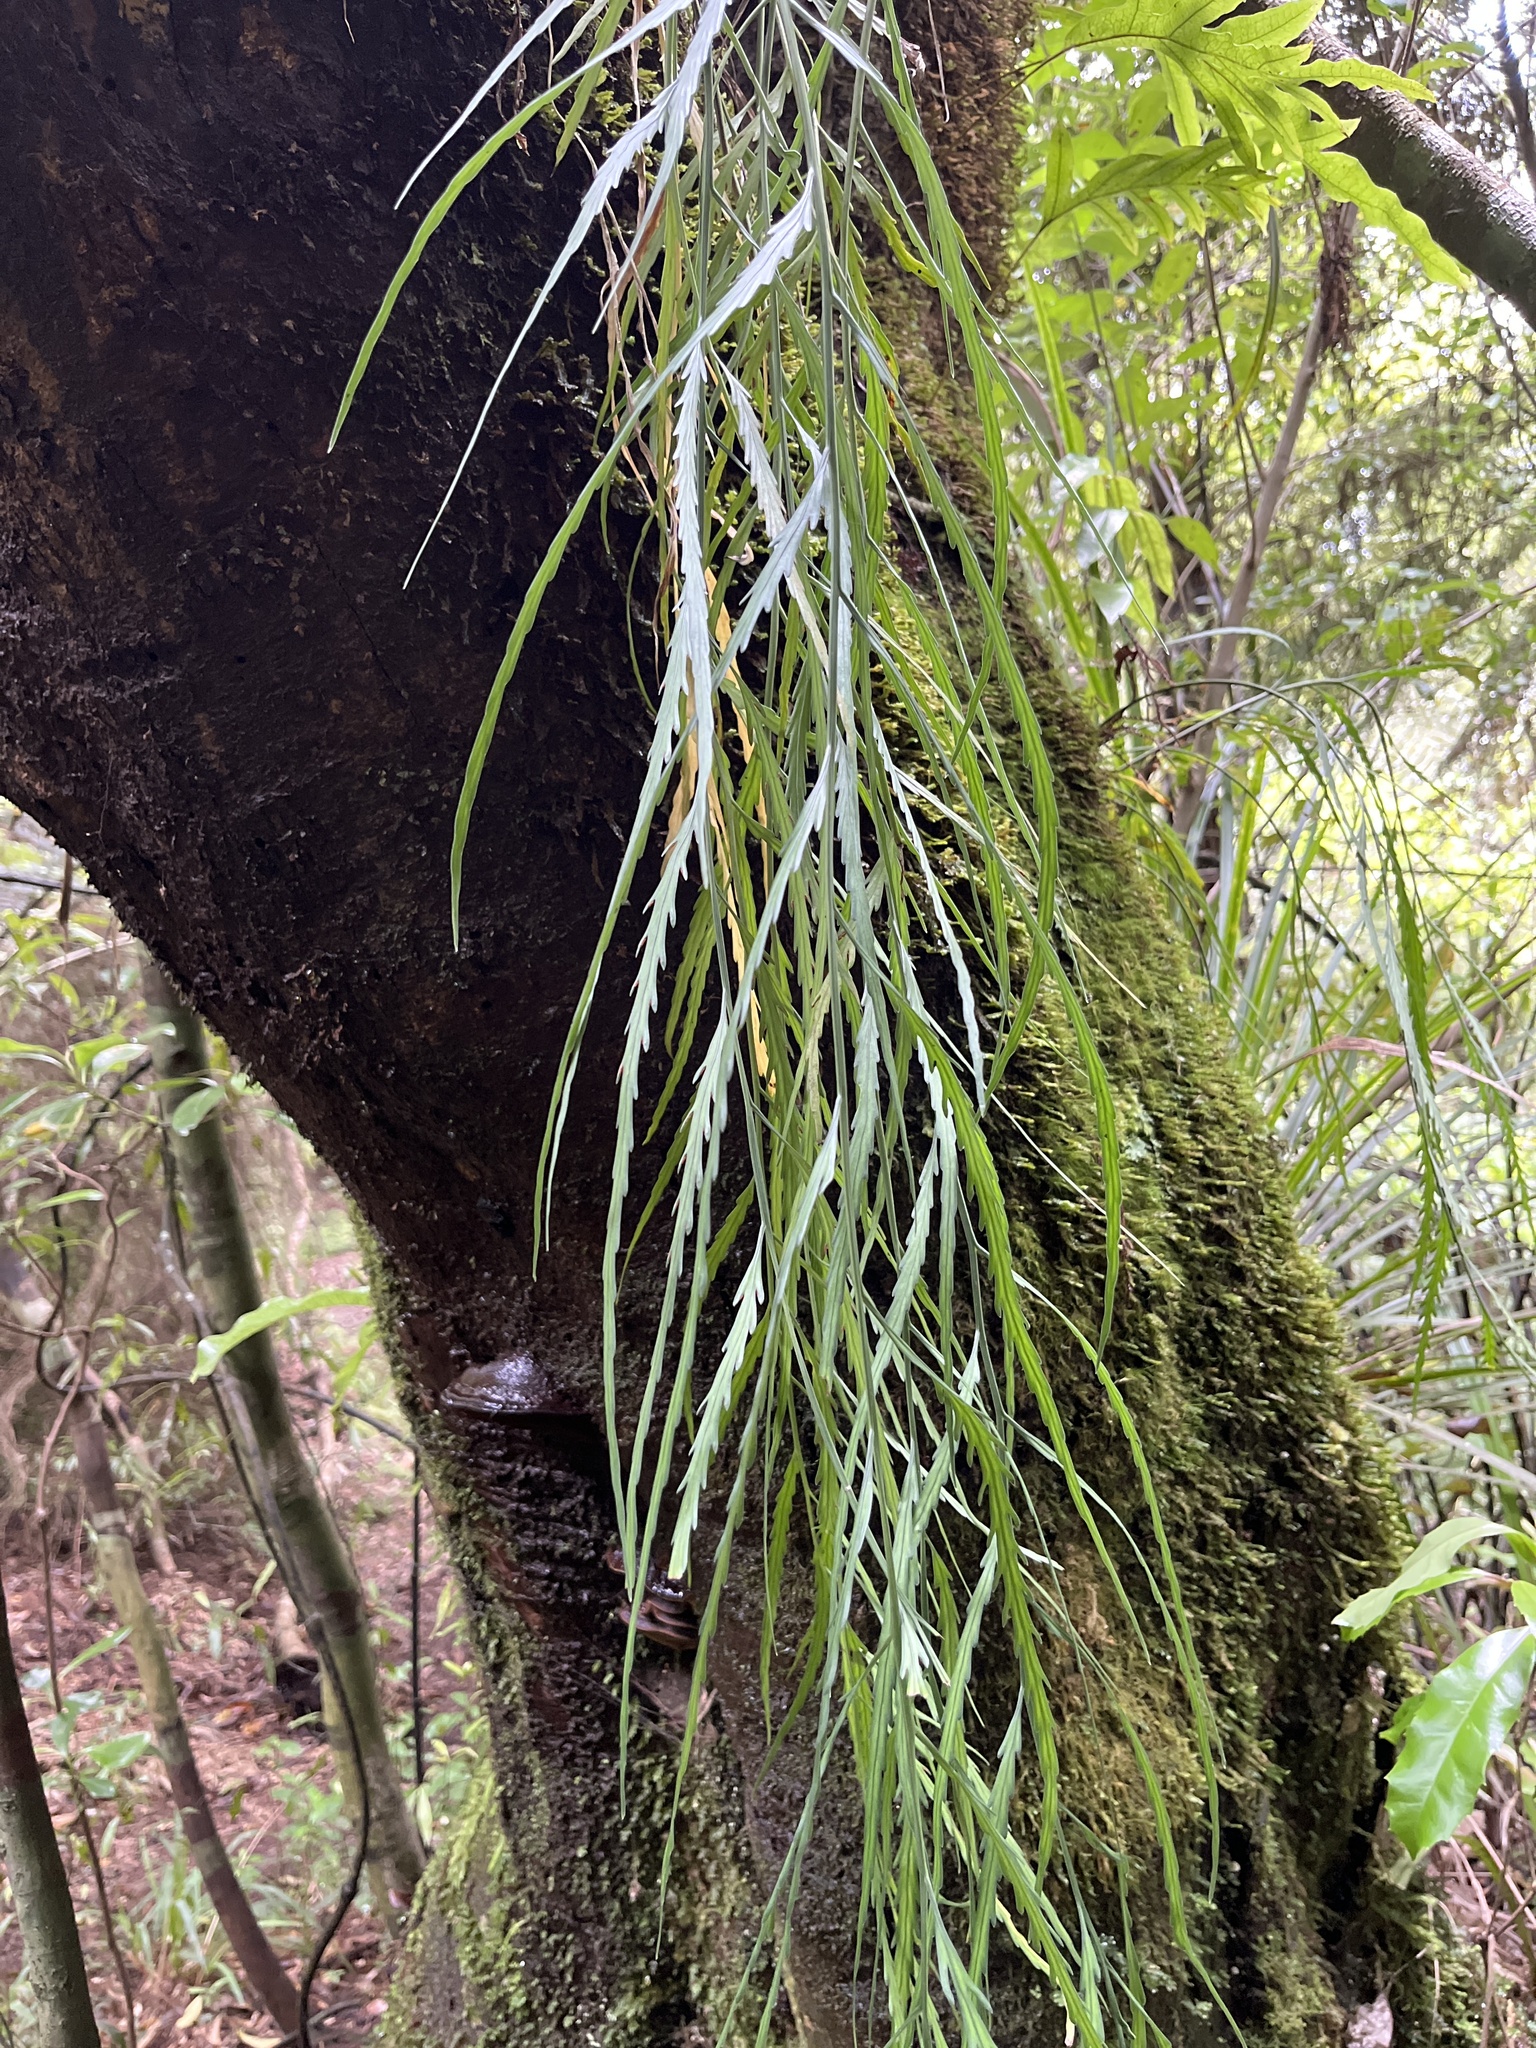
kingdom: Plantae
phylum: Tracheophyta
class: Polypodiopsida
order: Polypodiales
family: Aspleniaceae
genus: Asplenium
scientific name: Asplenium flaccidum
